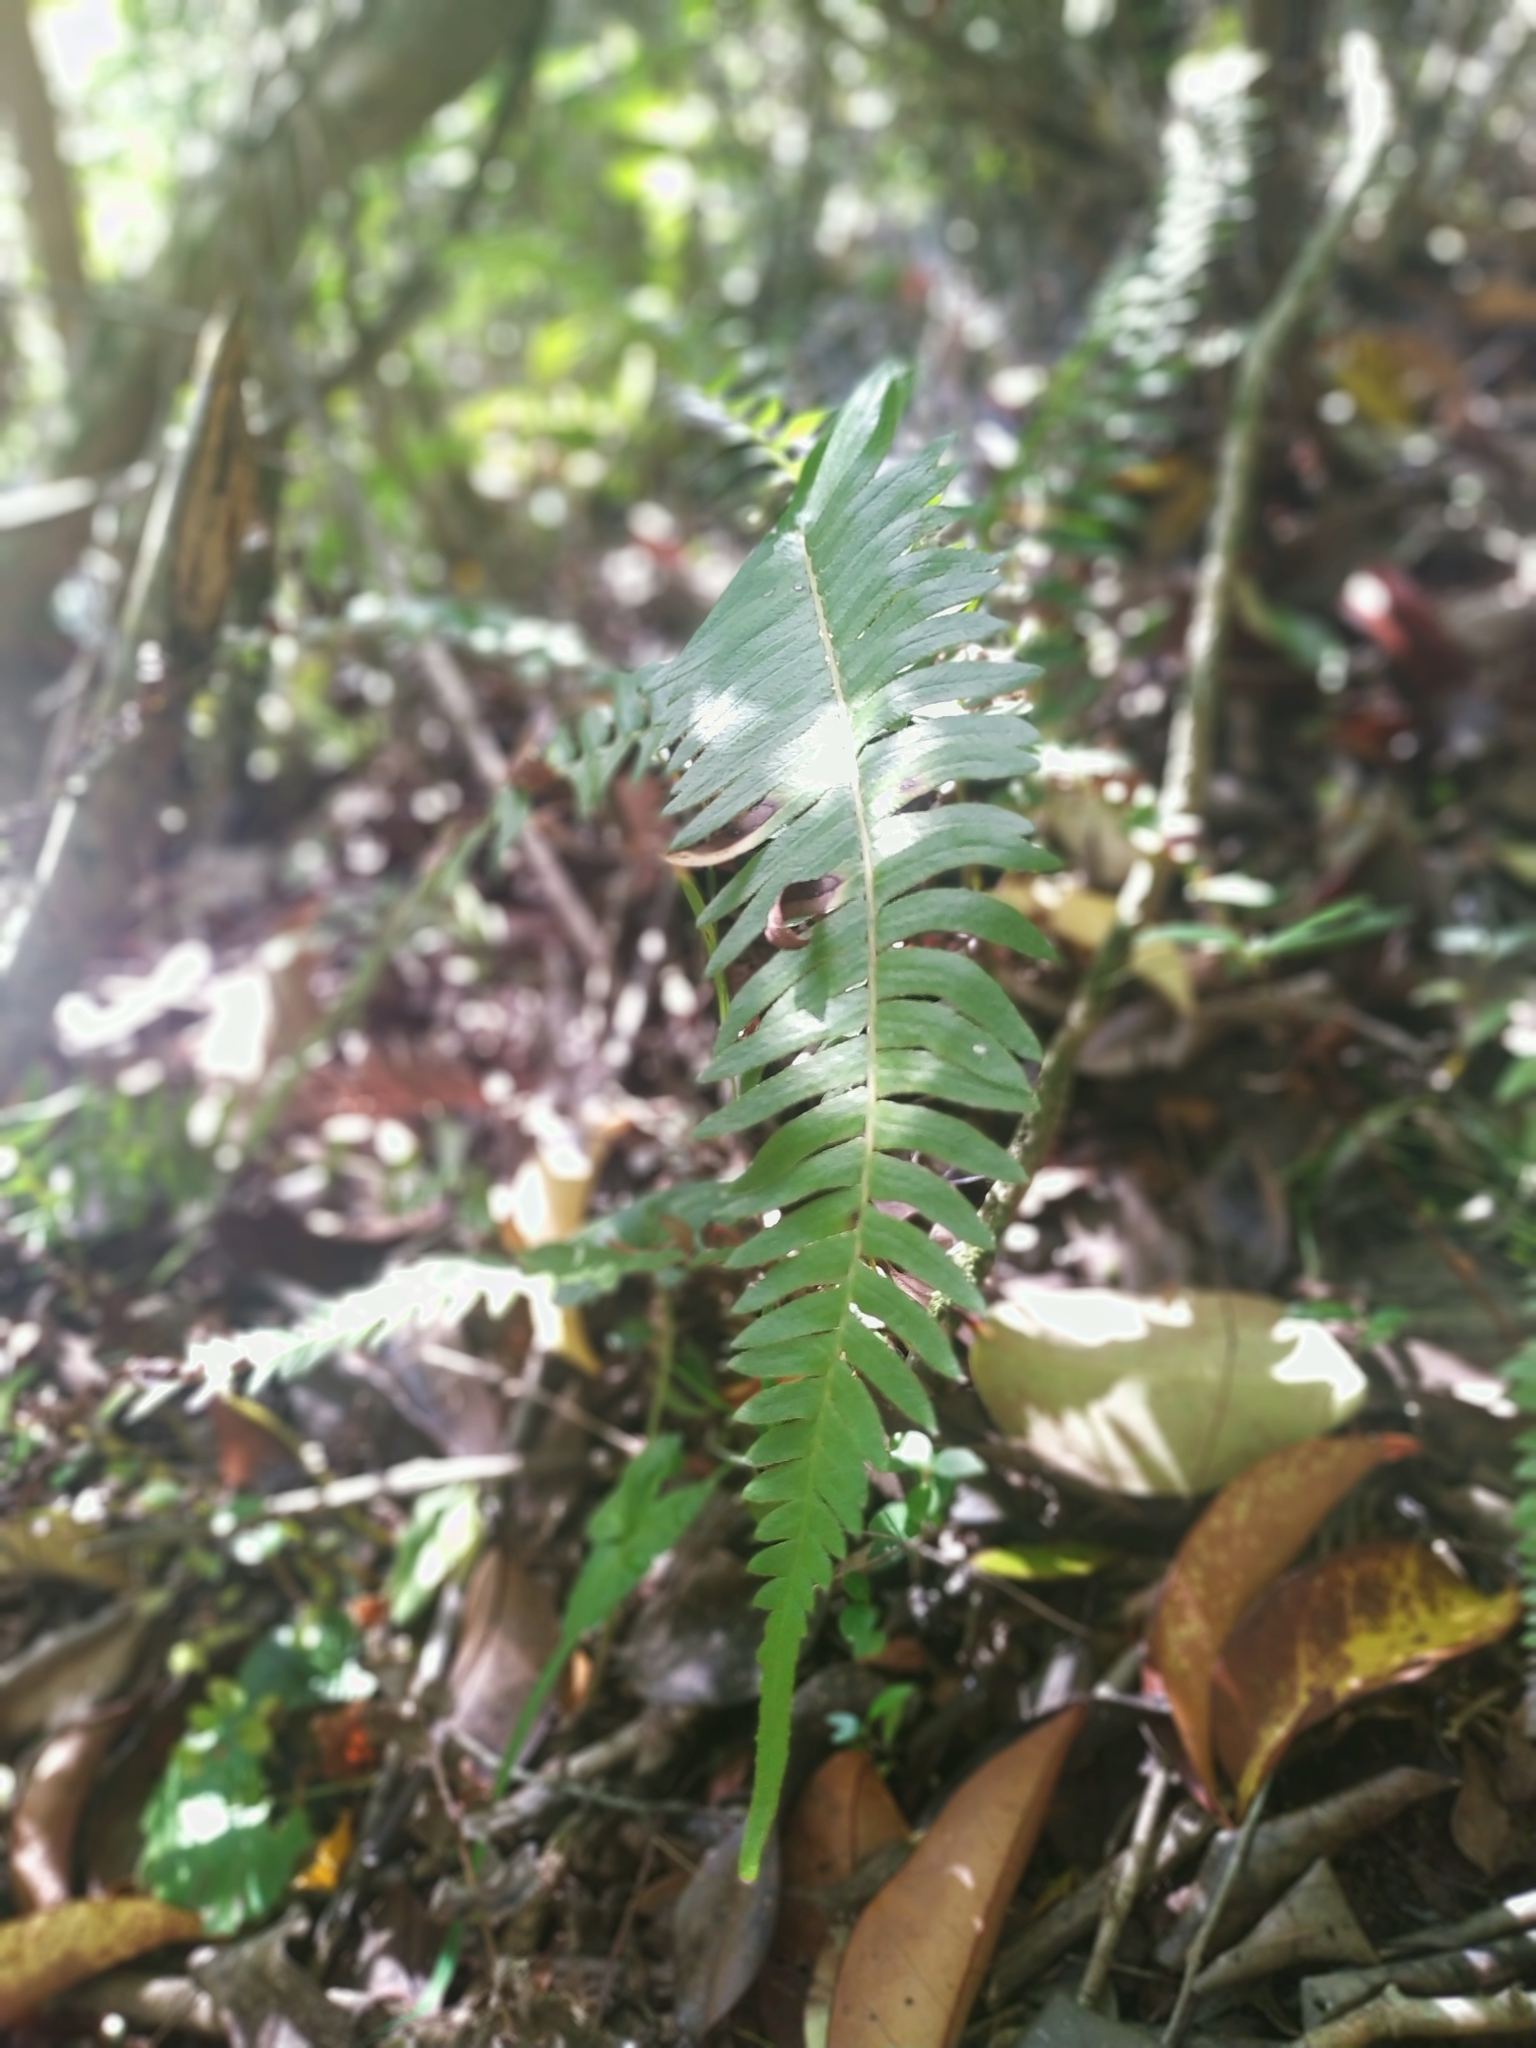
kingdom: Plantae
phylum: Tracheophyta
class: Polypodiopsida
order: Polypodiales
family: Blechnaceae
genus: Blechnum
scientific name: Blechnum auriculatum
